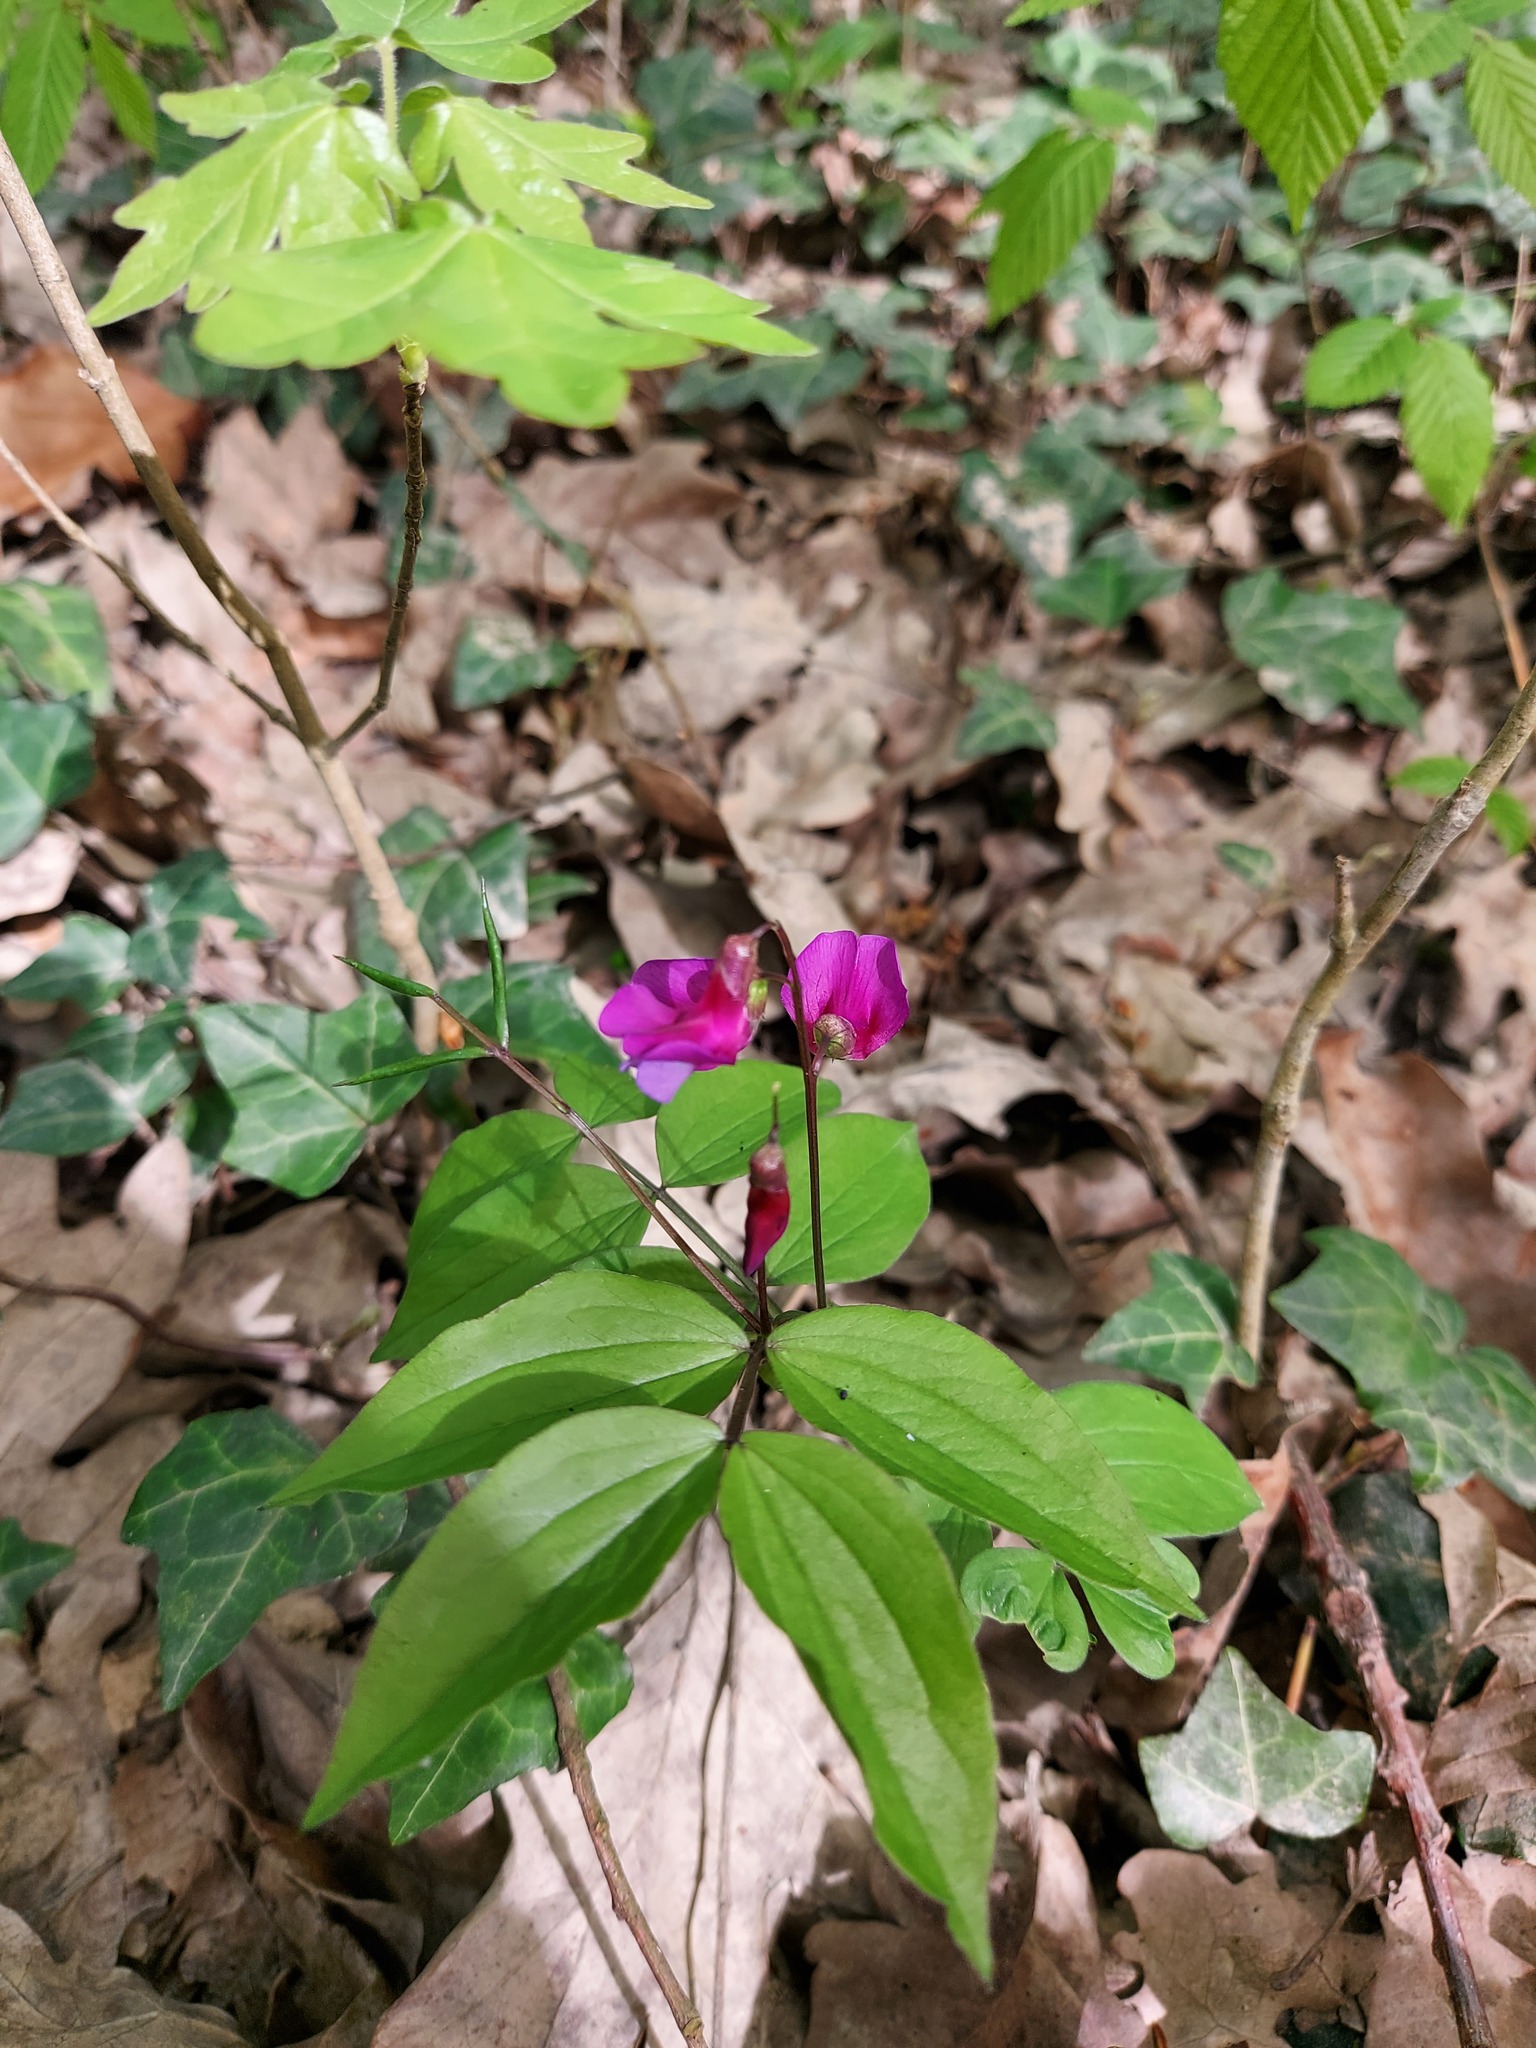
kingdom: Plantae
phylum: Tracheophyta
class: Magnoliopsida
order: Fabales
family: Fabaceae
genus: Lathyrus
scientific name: Lathyrus vernus
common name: Spring pea
